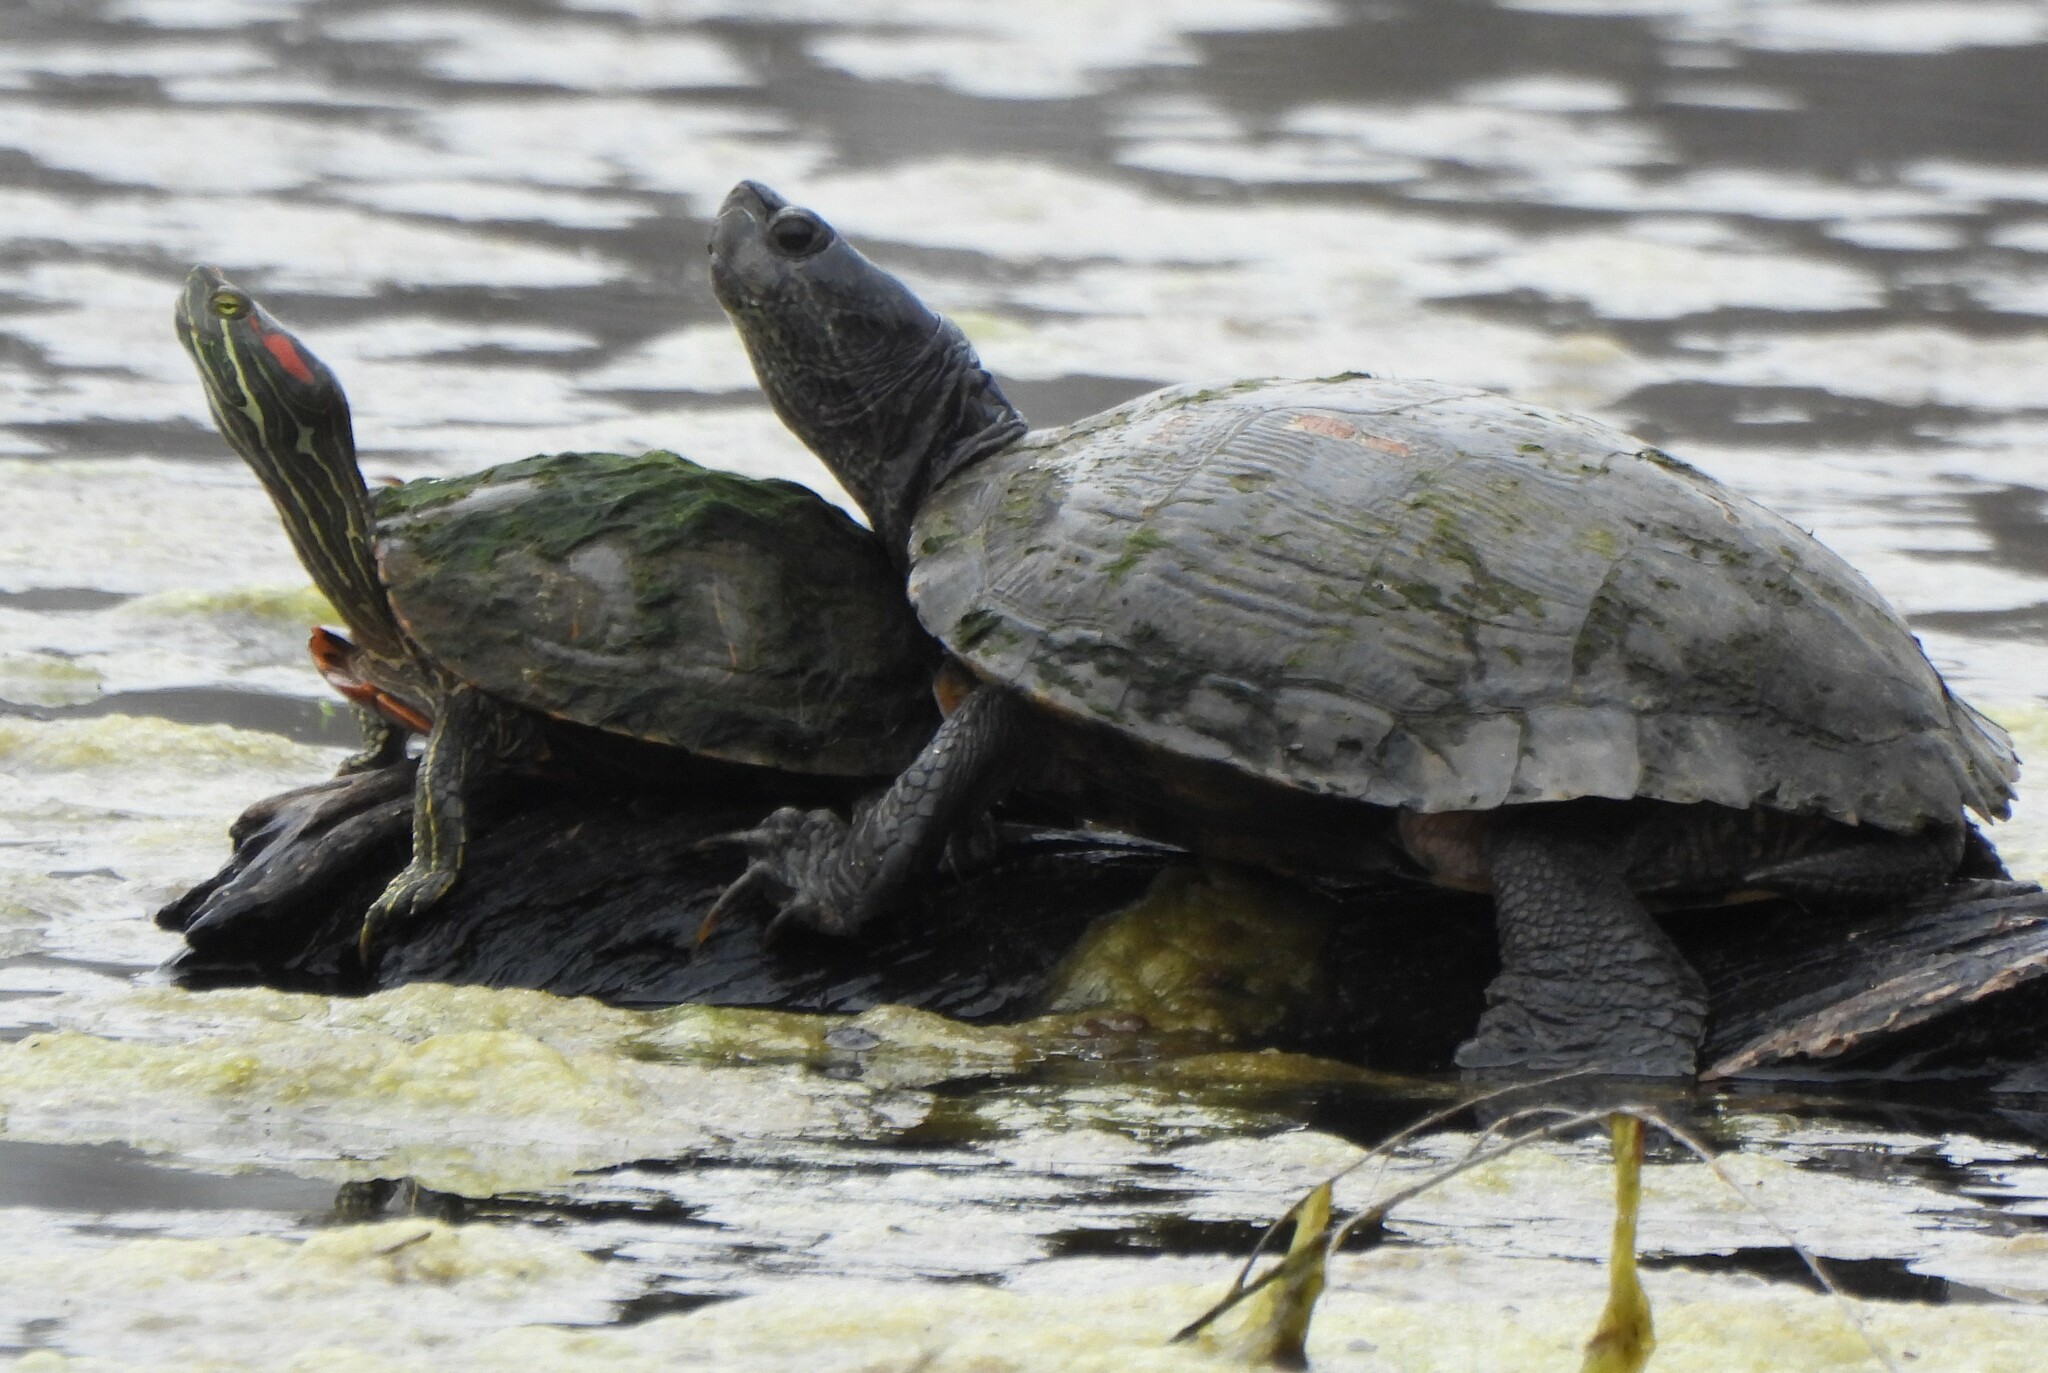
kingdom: Animalia
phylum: Chordata
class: Testudines
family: Emydidae
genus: Trachemys
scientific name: Trachemys scripta
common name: Slider
